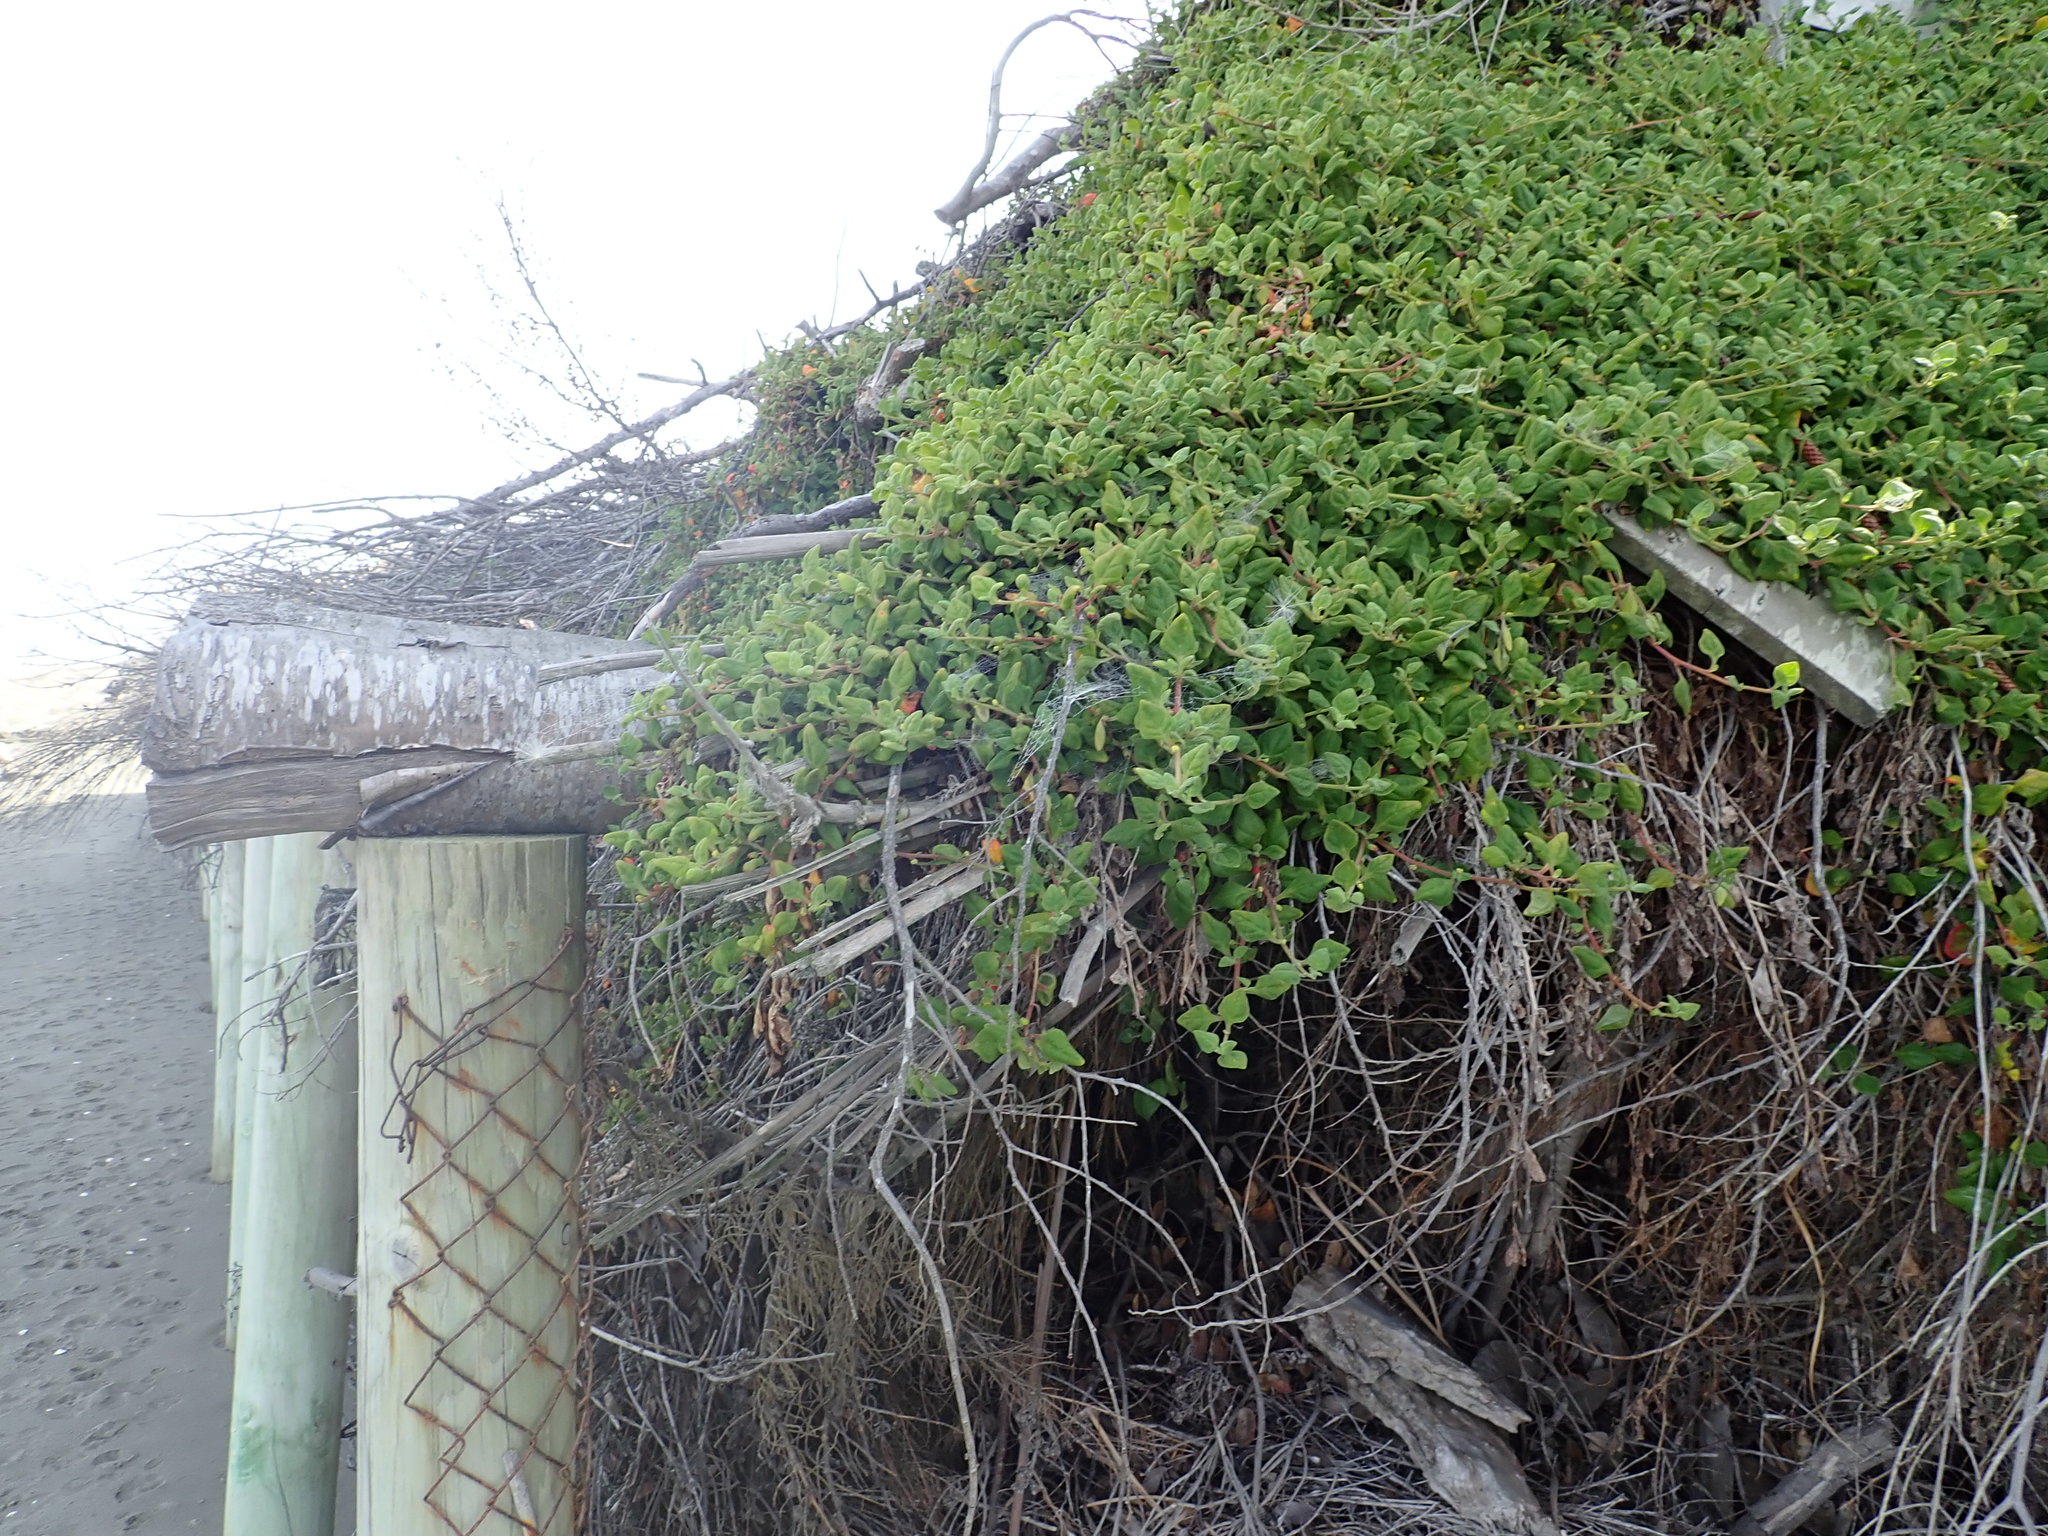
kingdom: Plantae
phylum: Tracheophyta
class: Magnoliopsida
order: Caryophyllales
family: Aizoaceae
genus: Tetragonia
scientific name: Tetragonia implexicoma
